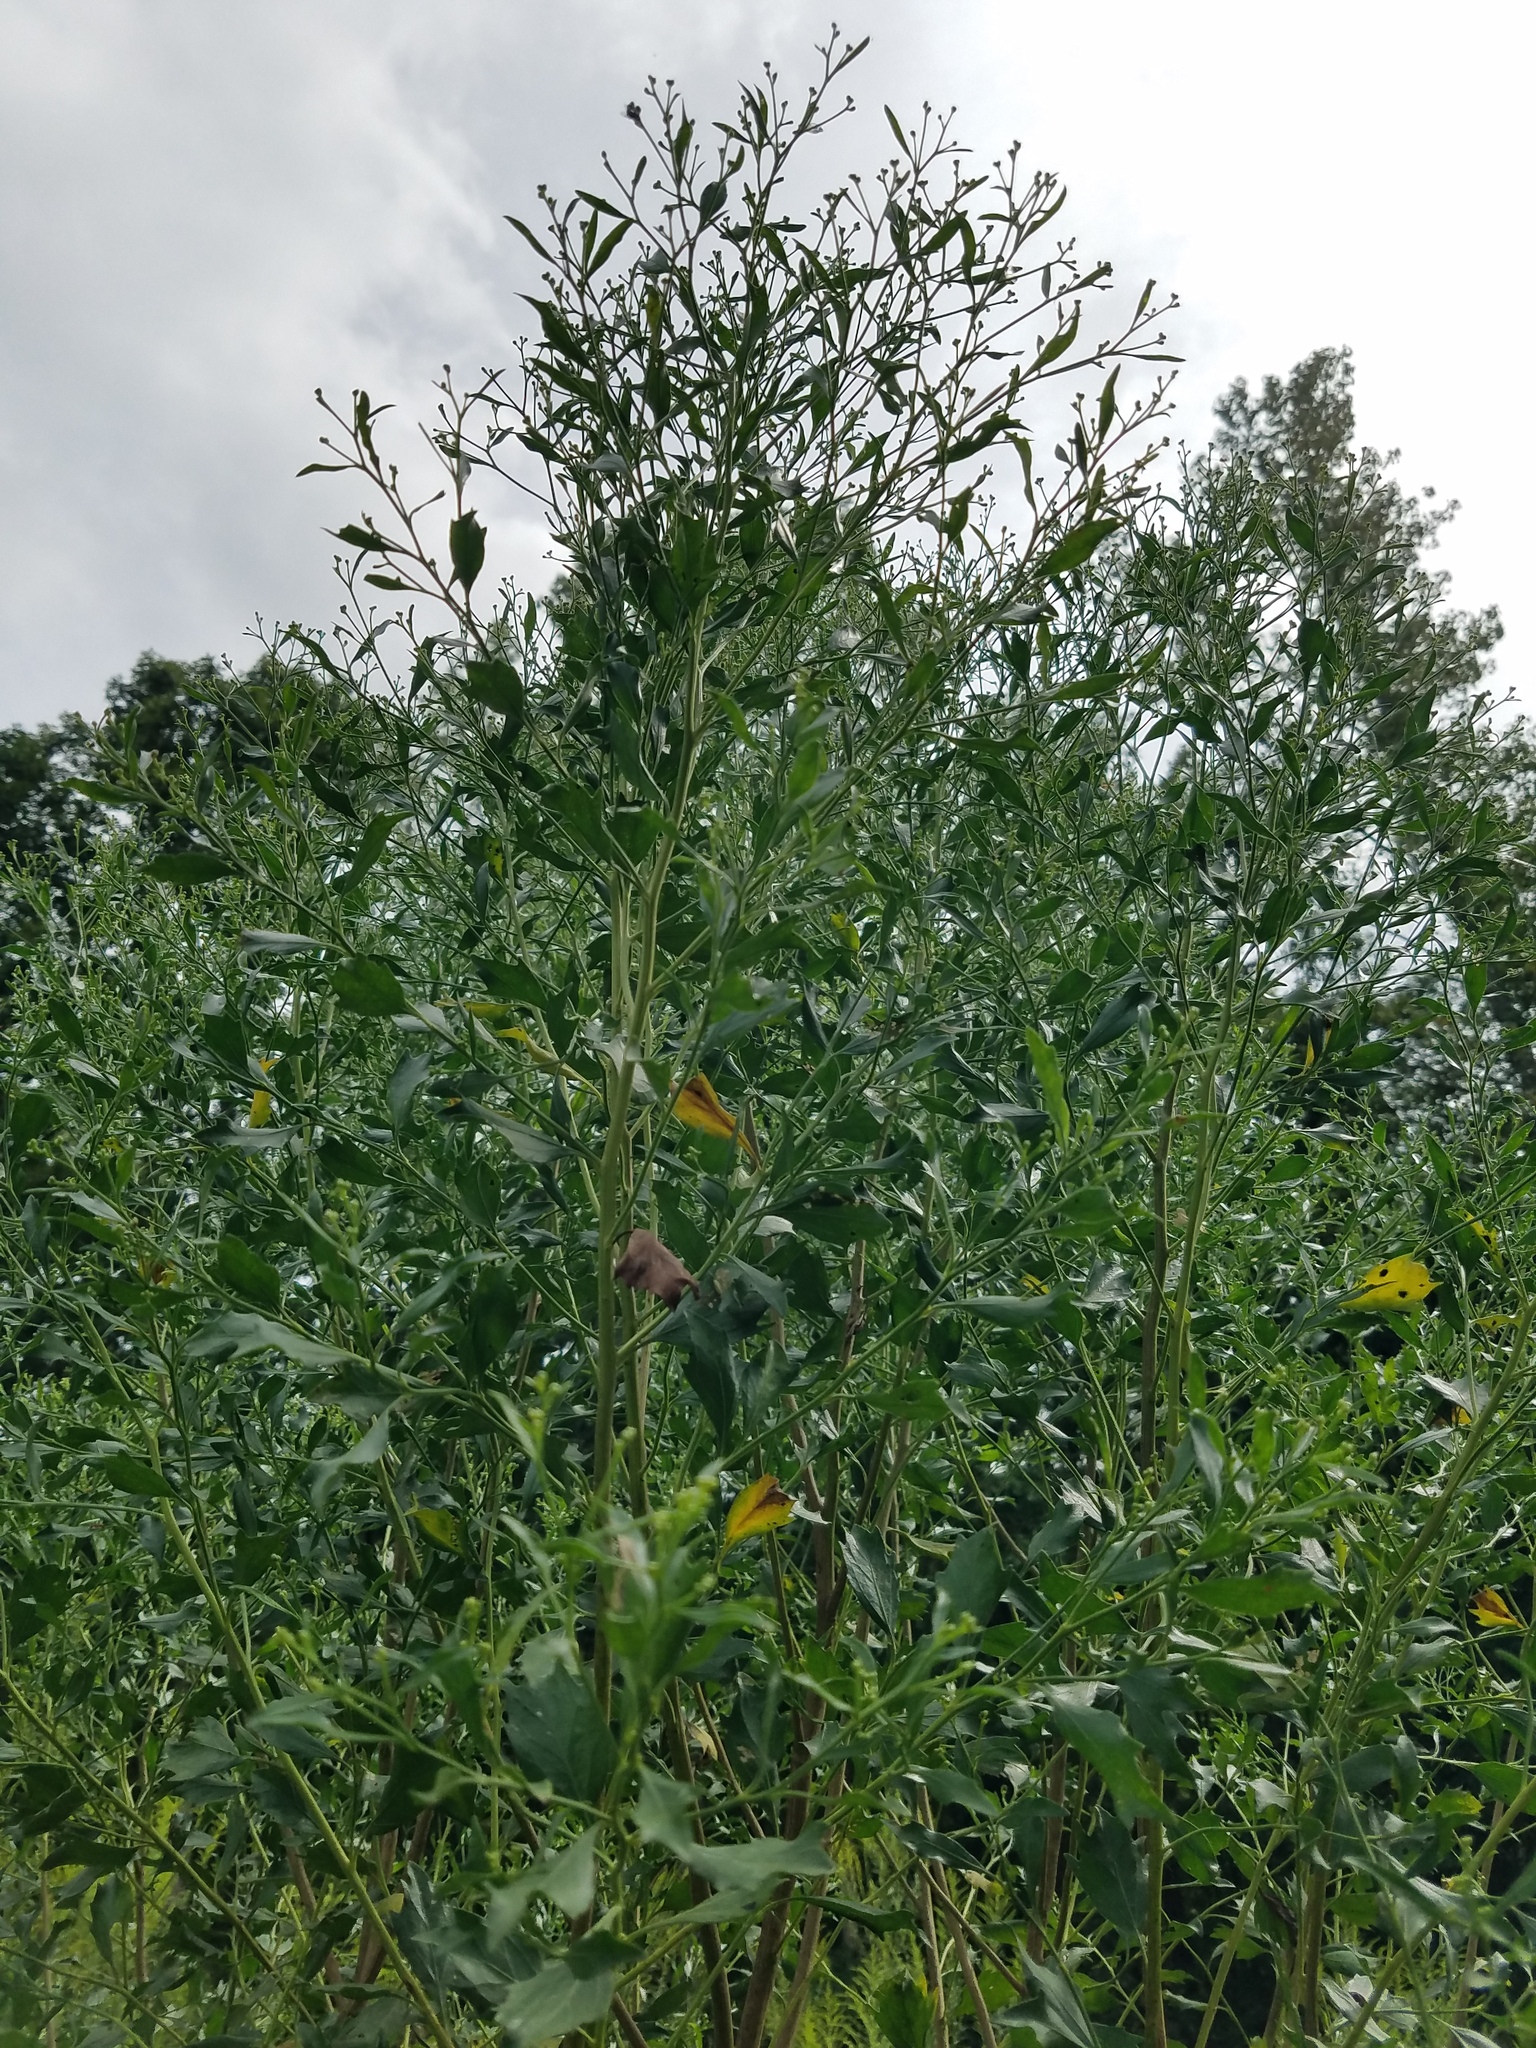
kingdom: Plantae
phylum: Tracheophyta
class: Magnoliopsida
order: Asterales
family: Asteraceae
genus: Baccharis
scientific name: Baccharis halimifolia
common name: Eastern baccharis
